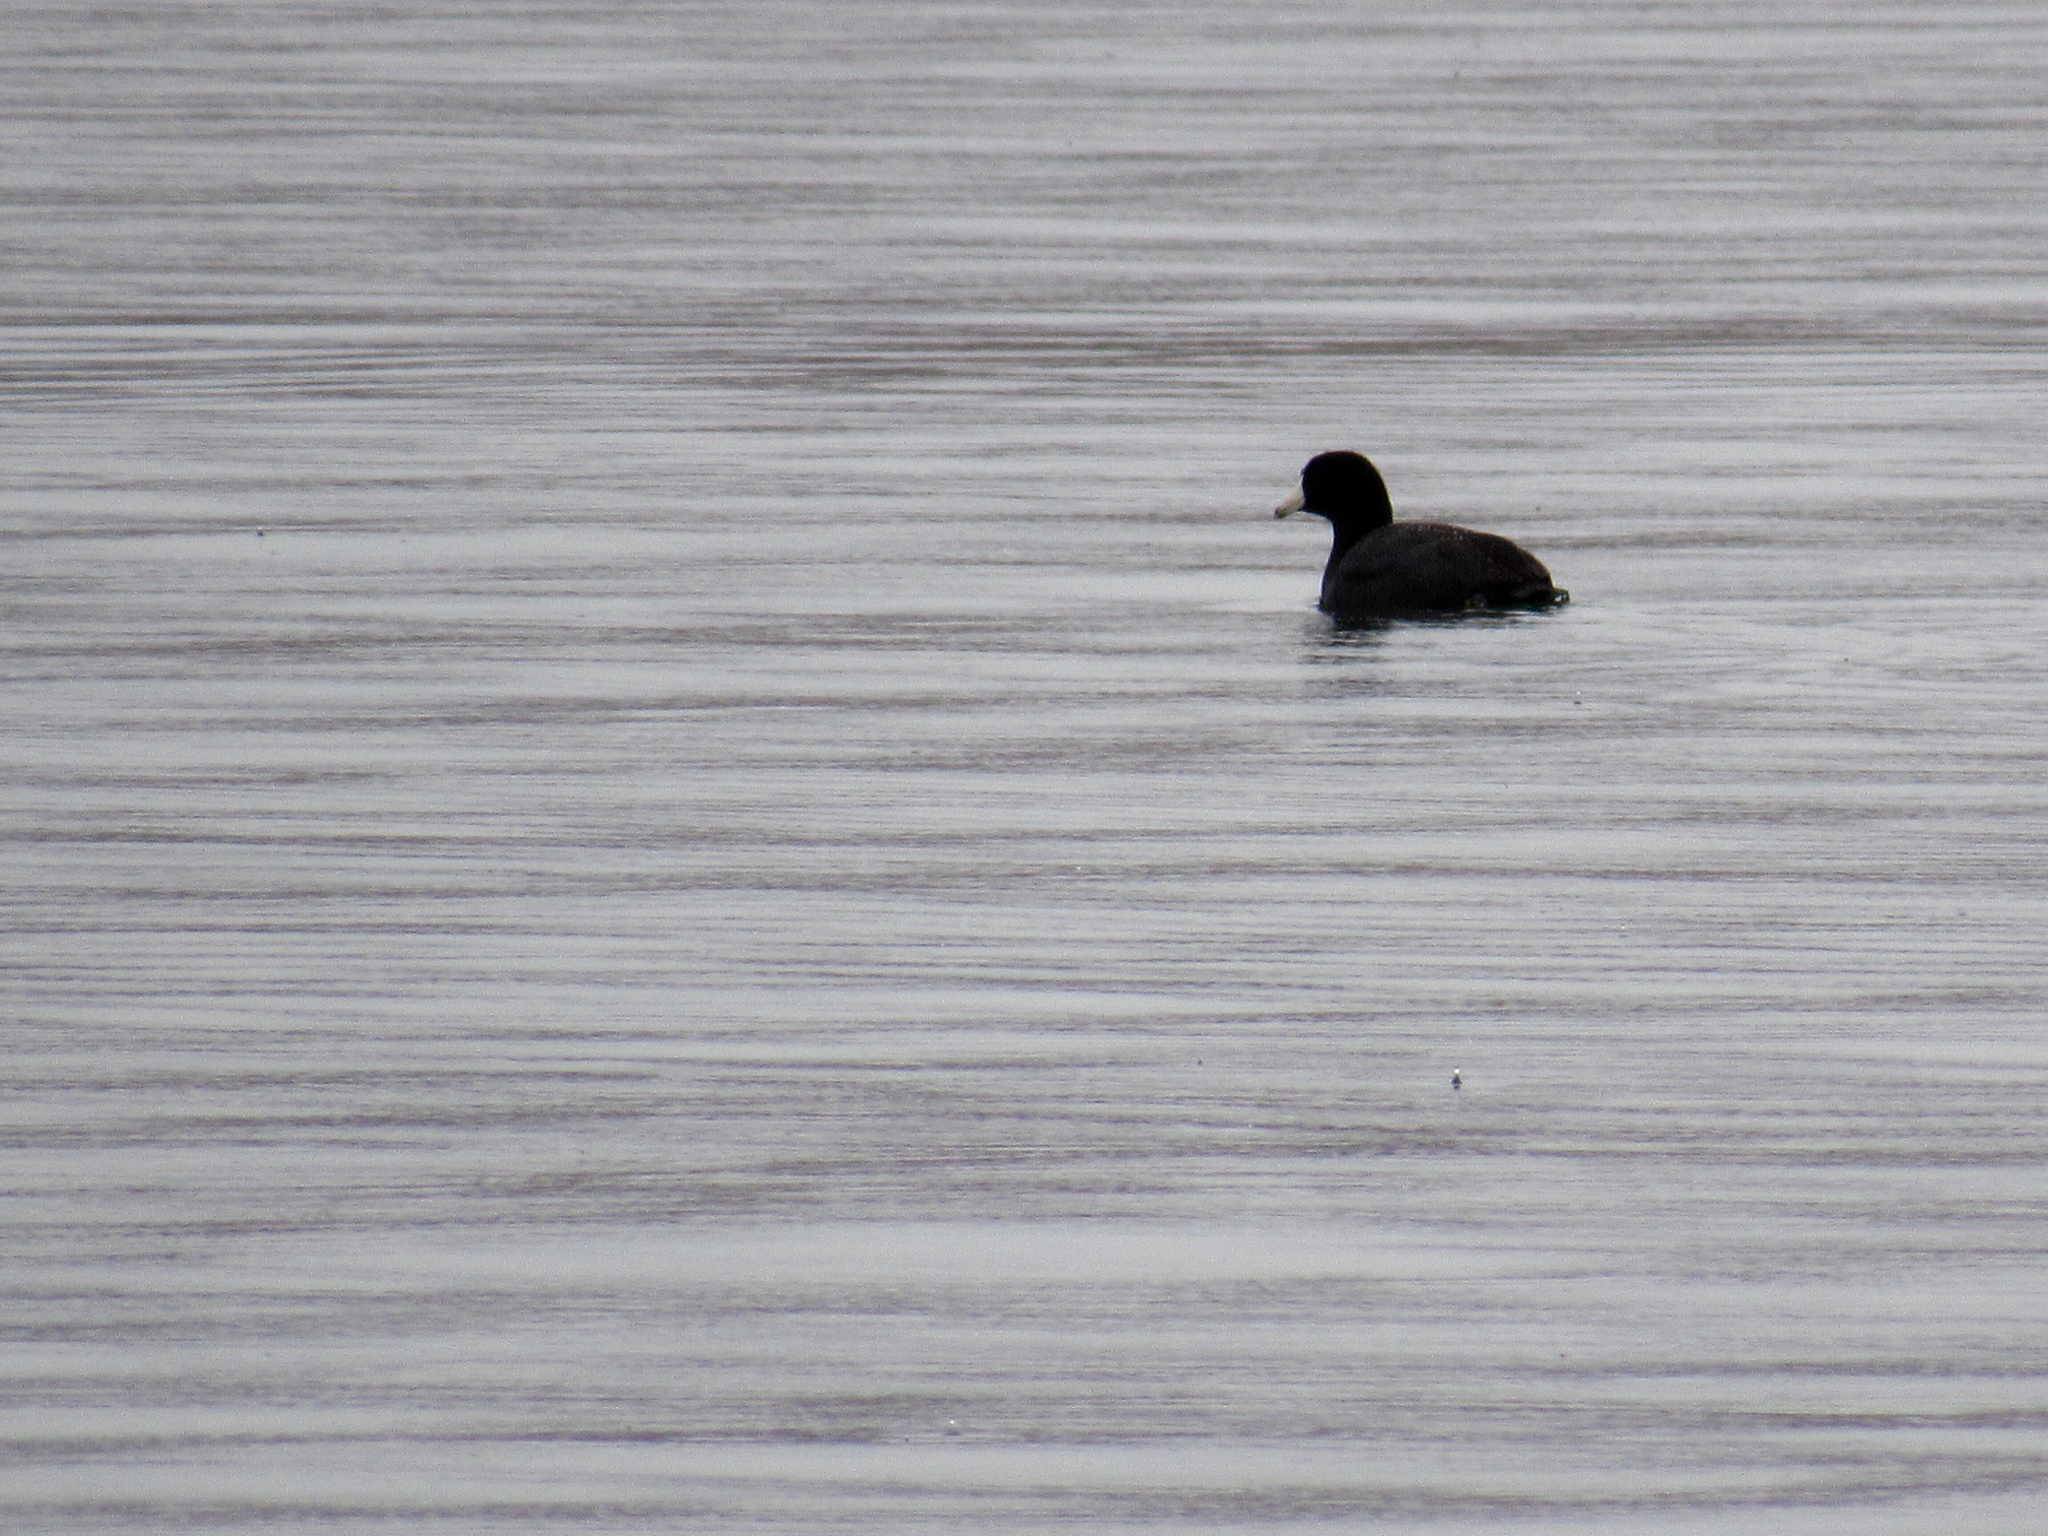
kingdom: Animalia
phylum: Chordata
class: Aves
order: Gruiformes
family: Rallidae
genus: Fulica
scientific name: Fulica americana
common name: American coot
